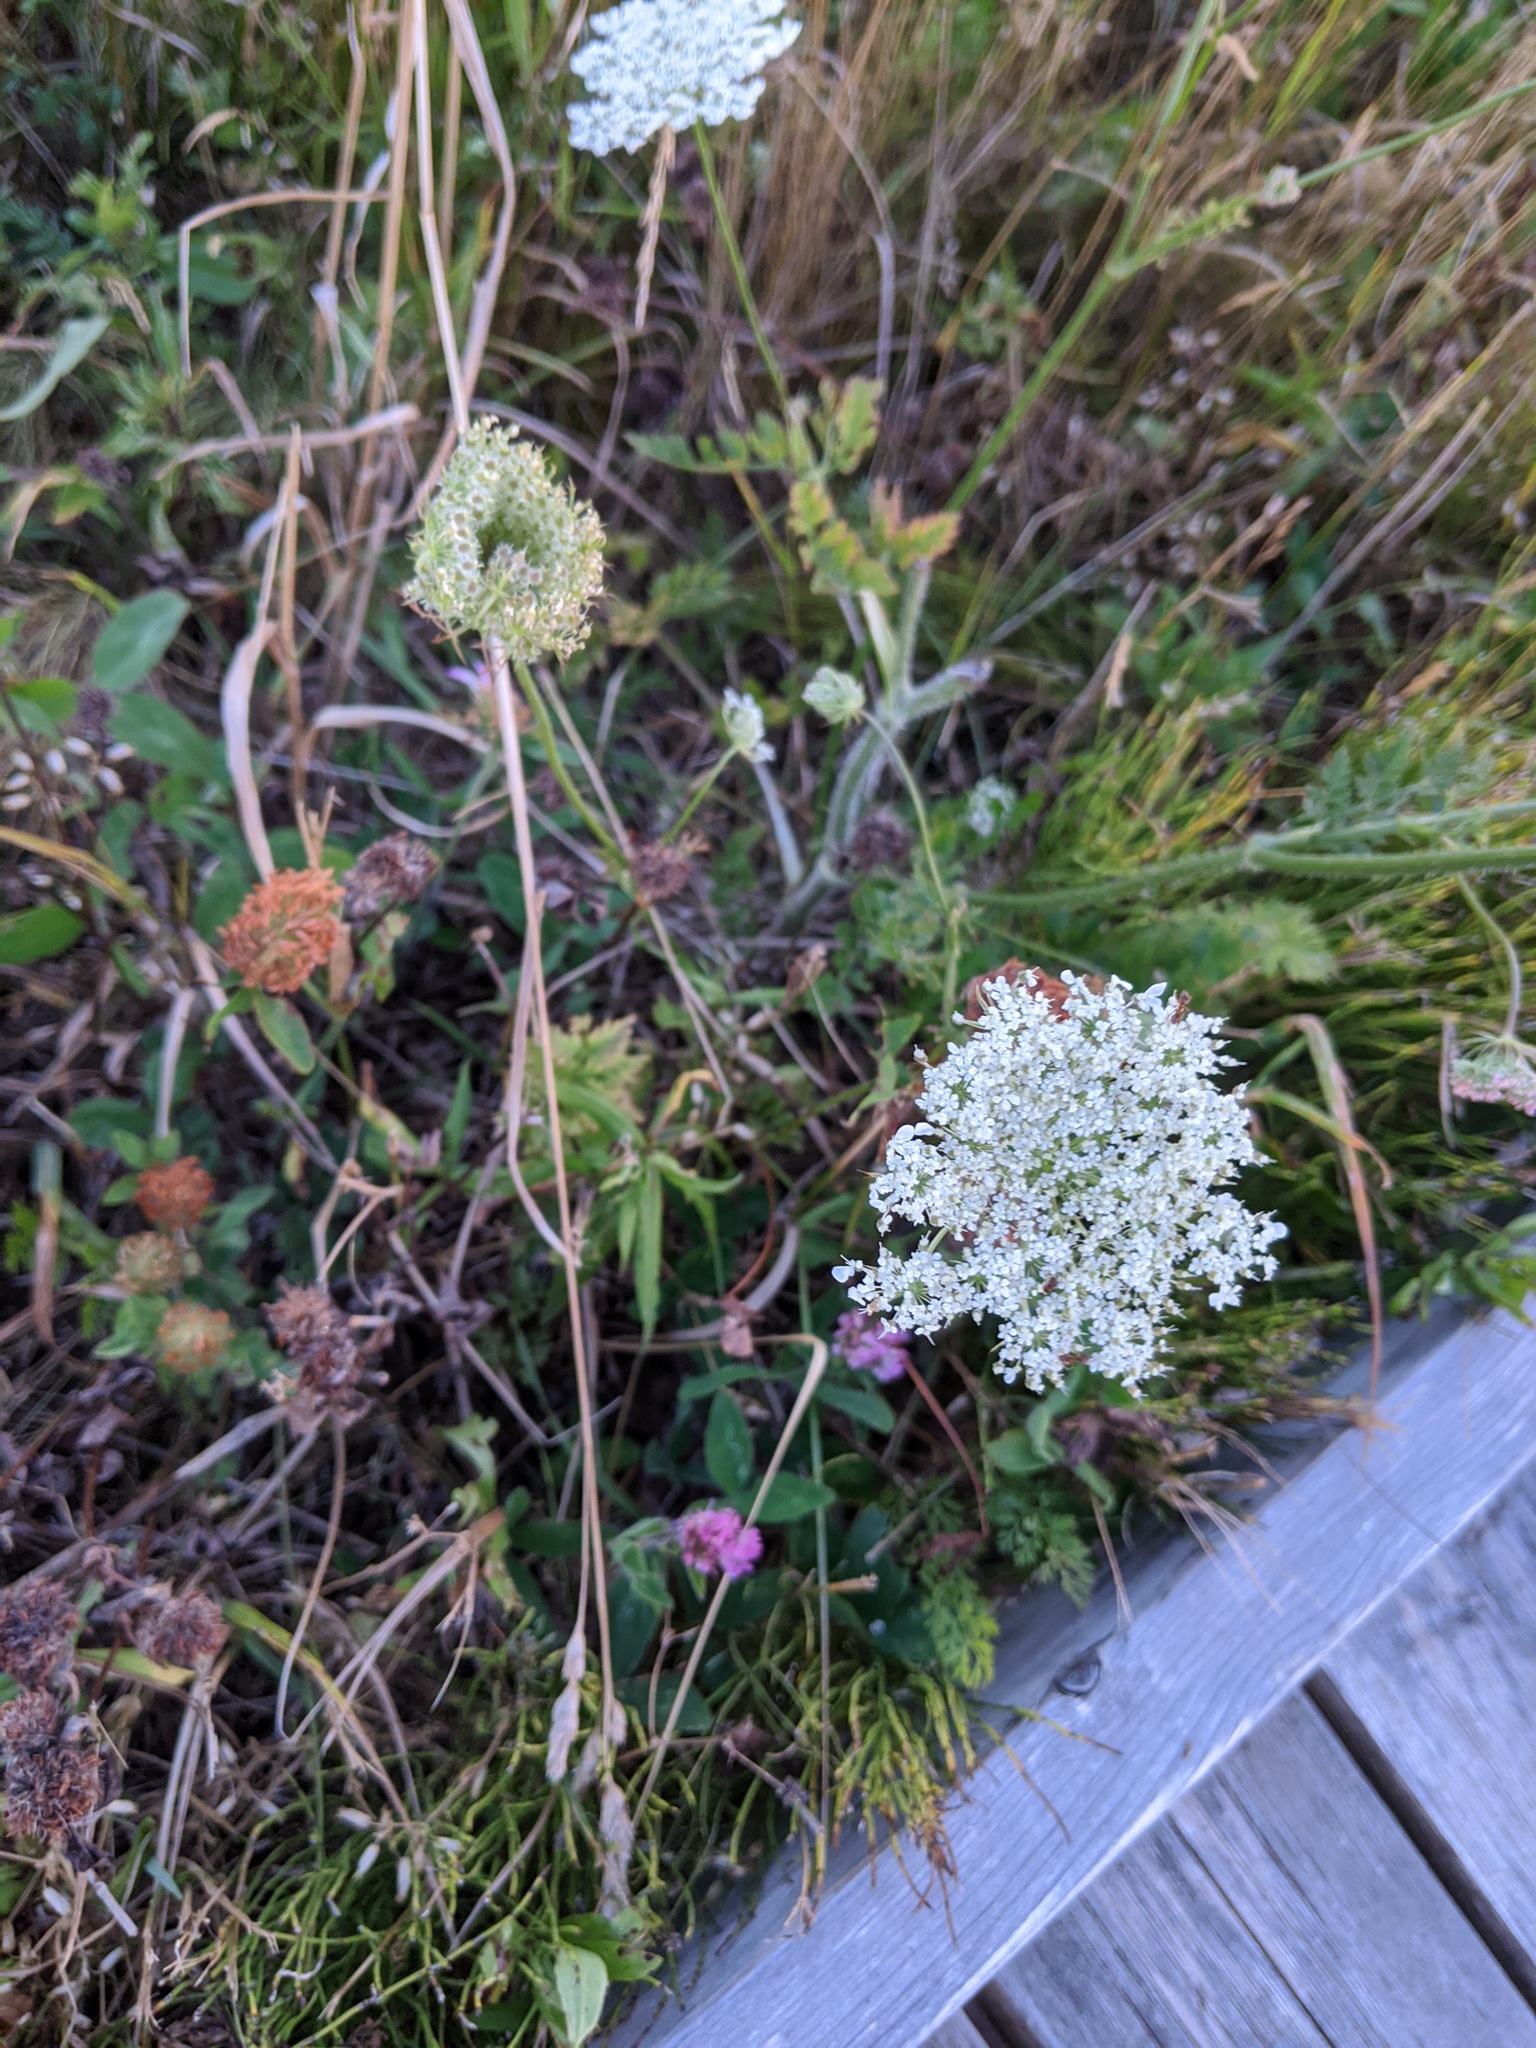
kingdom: Plantae
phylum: Tracheophyta
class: Magnoliopsida
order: Apiales
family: Apiaceae
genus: Daucus
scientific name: Daucus carota
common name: Wild carrot
